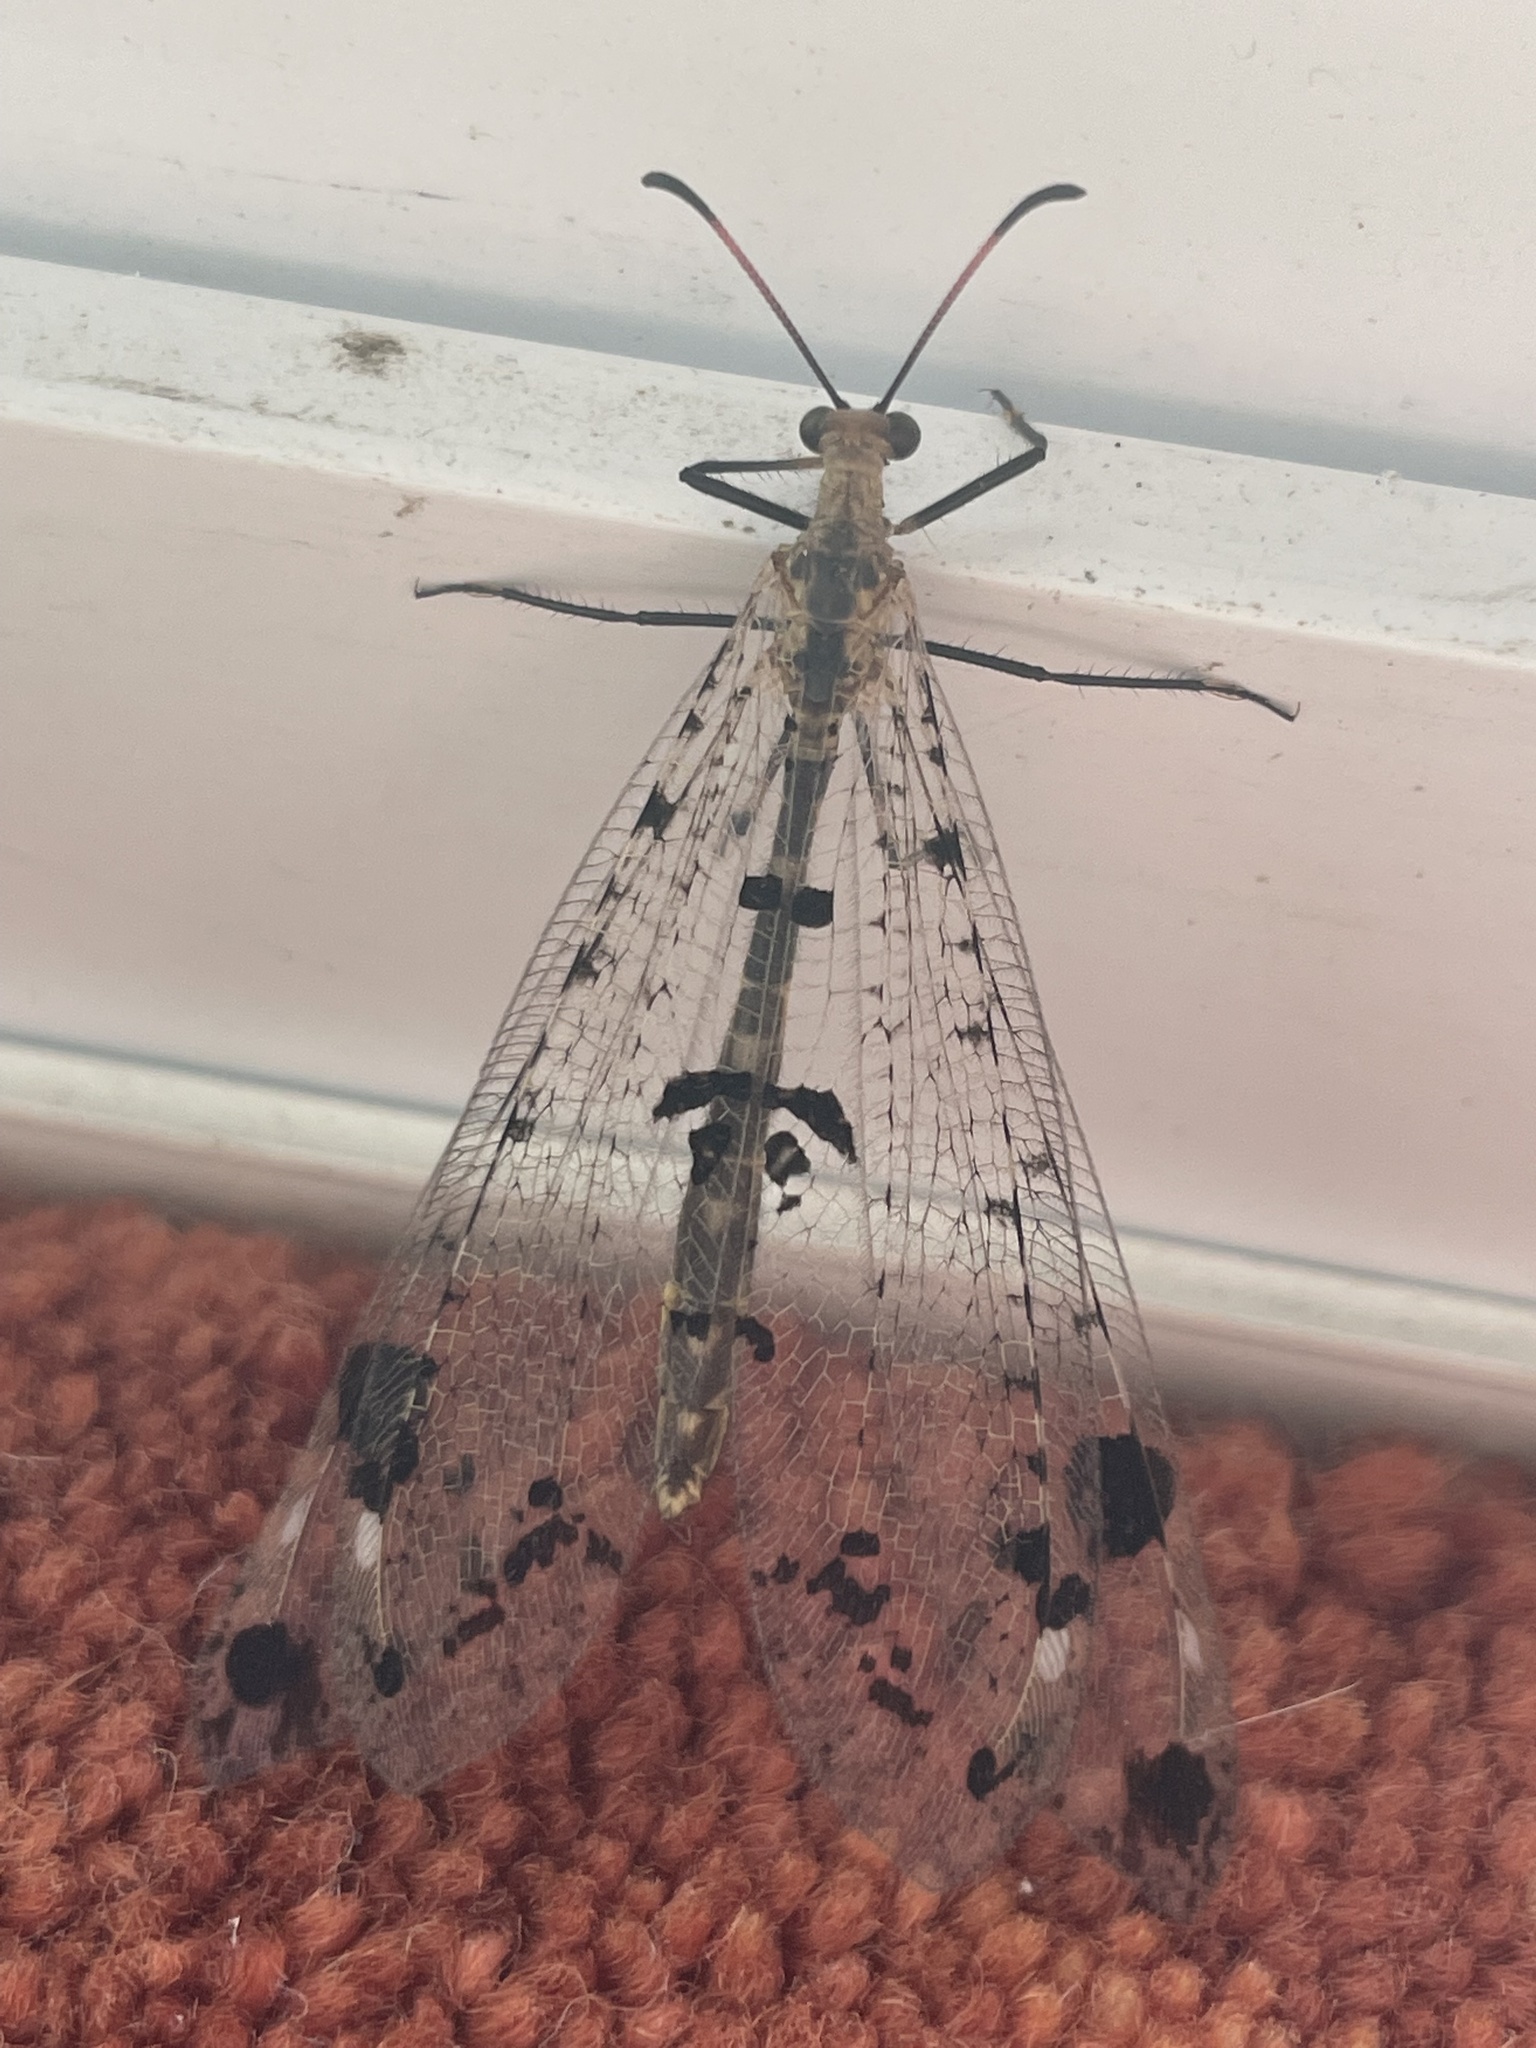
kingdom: Animalia
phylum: Arthropoda
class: Insecta
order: Neuroptera
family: Myrmeleontidae
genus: Dendroleon
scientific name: Dendroleon obsoletus
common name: Eastern spotted-winged antlion
